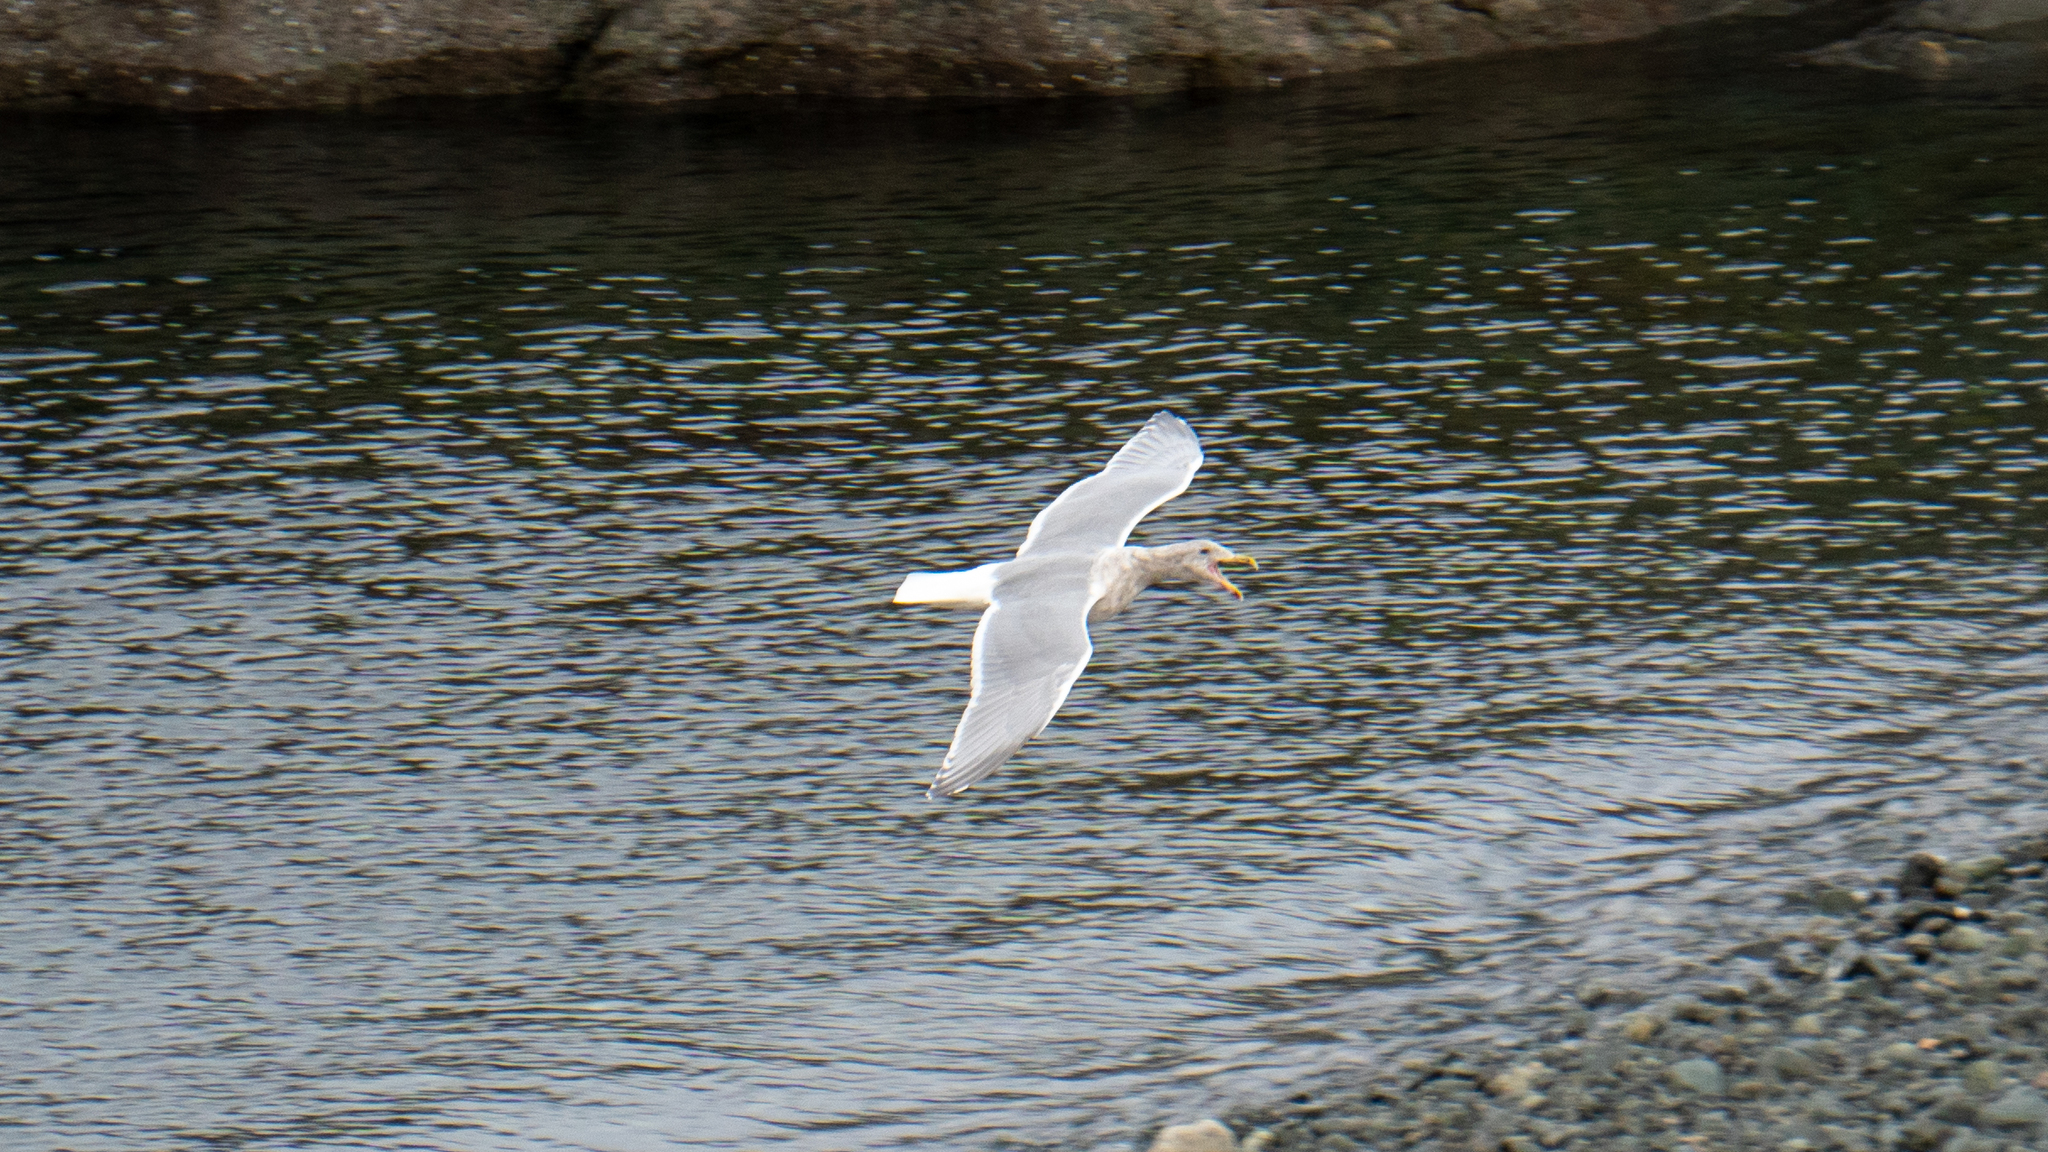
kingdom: Animalia
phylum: Chordata
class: Aves
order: Charadriiformes
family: Laridae
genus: Larus
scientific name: Larus
